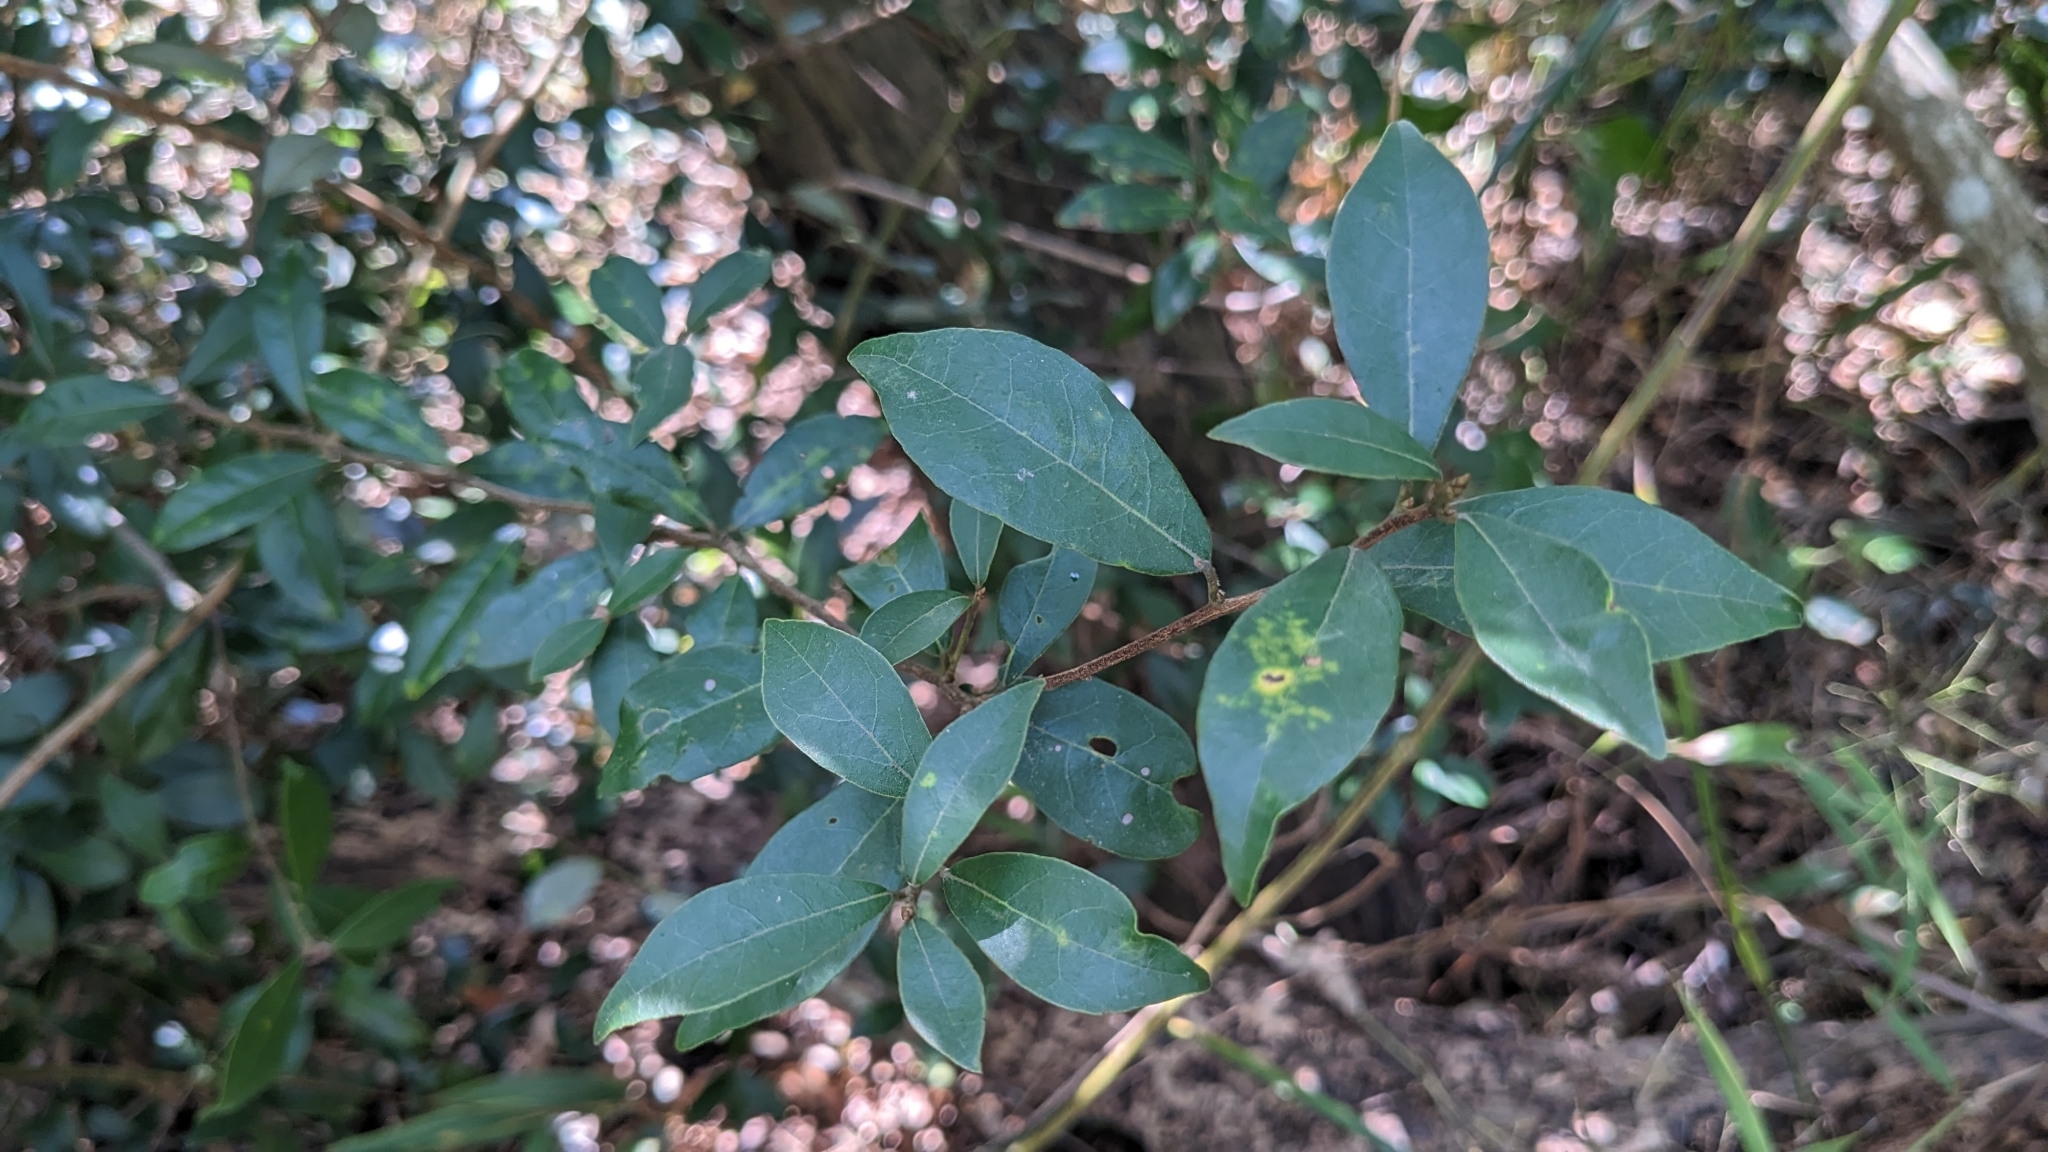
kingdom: Plantae
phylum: Tracheophyta
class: Magnoliopsida
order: Laurales
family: Lauraceae
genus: Litsea
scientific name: Litsea rotundifolia
